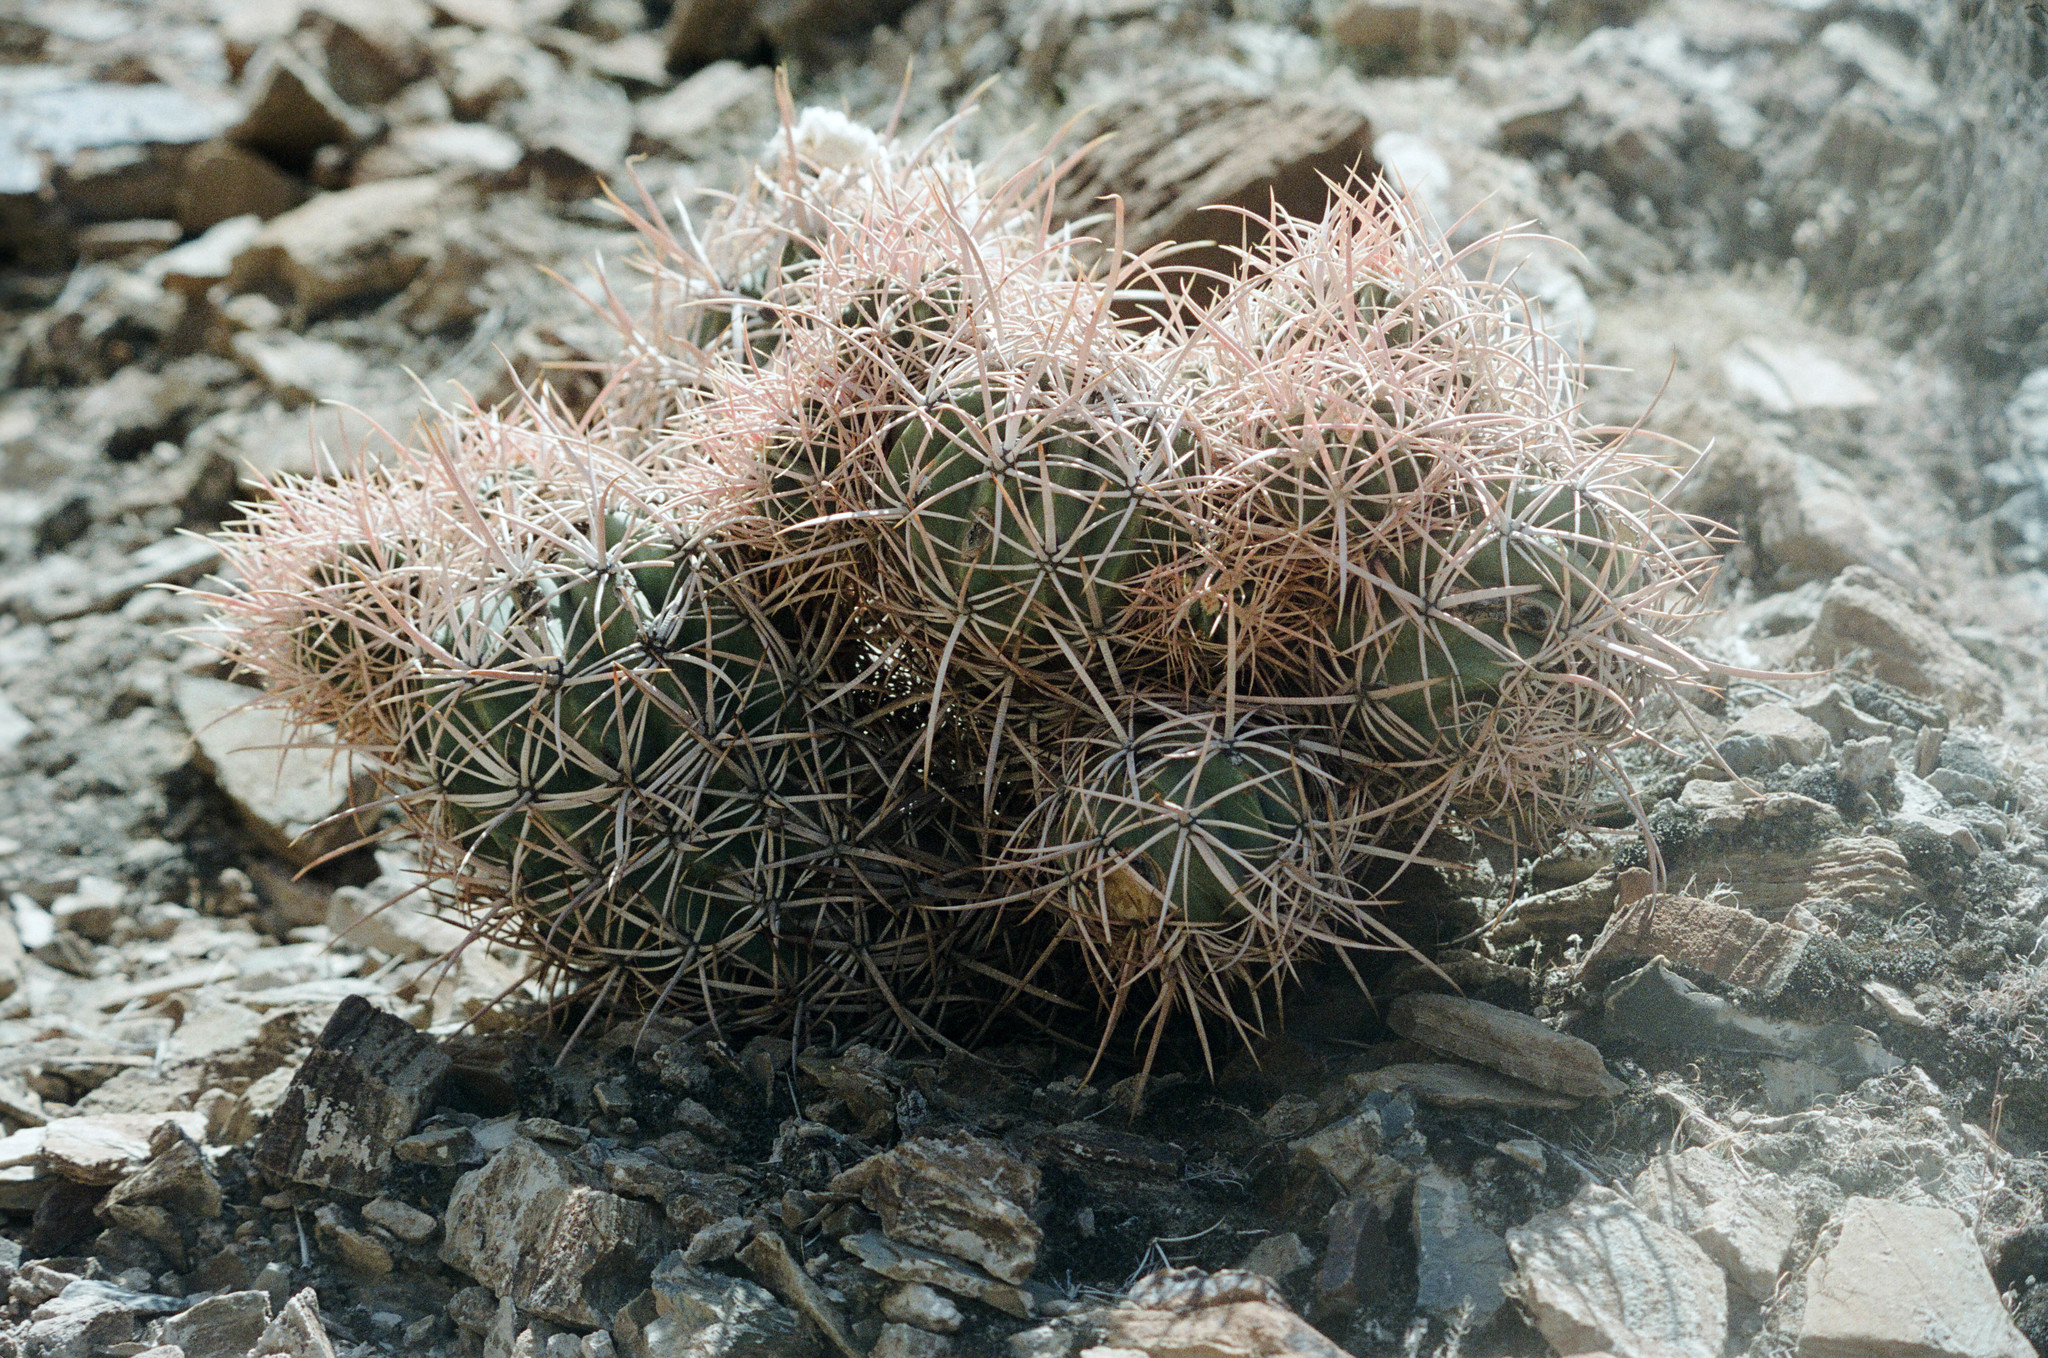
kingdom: Plantae
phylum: Tracheophyta
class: Magnoliopsida
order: Caryophyllales
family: Cactaceae
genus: Echinocactus
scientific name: Echinocactus polycephalus
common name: Cottontop cactus
